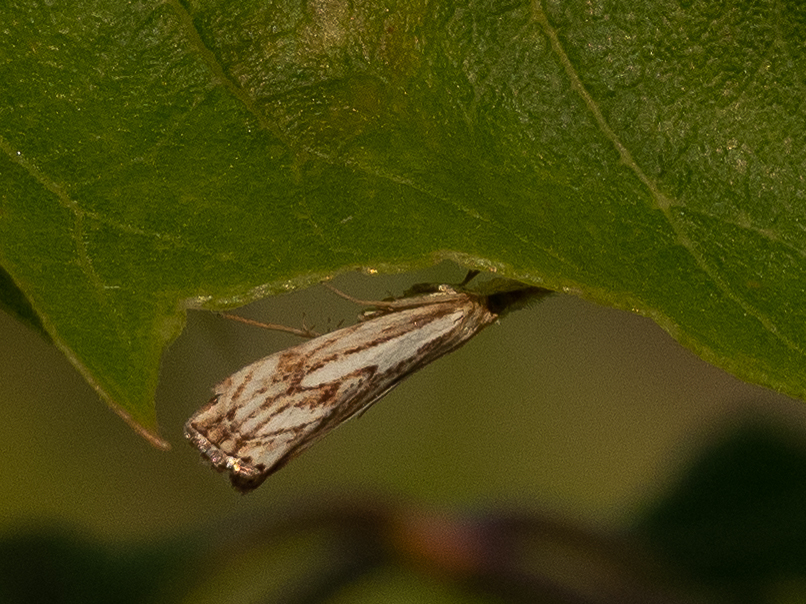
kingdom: Animalia
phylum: Arthropoda
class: Insecta
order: Lepidoptera
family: Crambidae
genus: Catoptria
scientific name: Catoptria falsella
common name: Chequered grass-veneer
